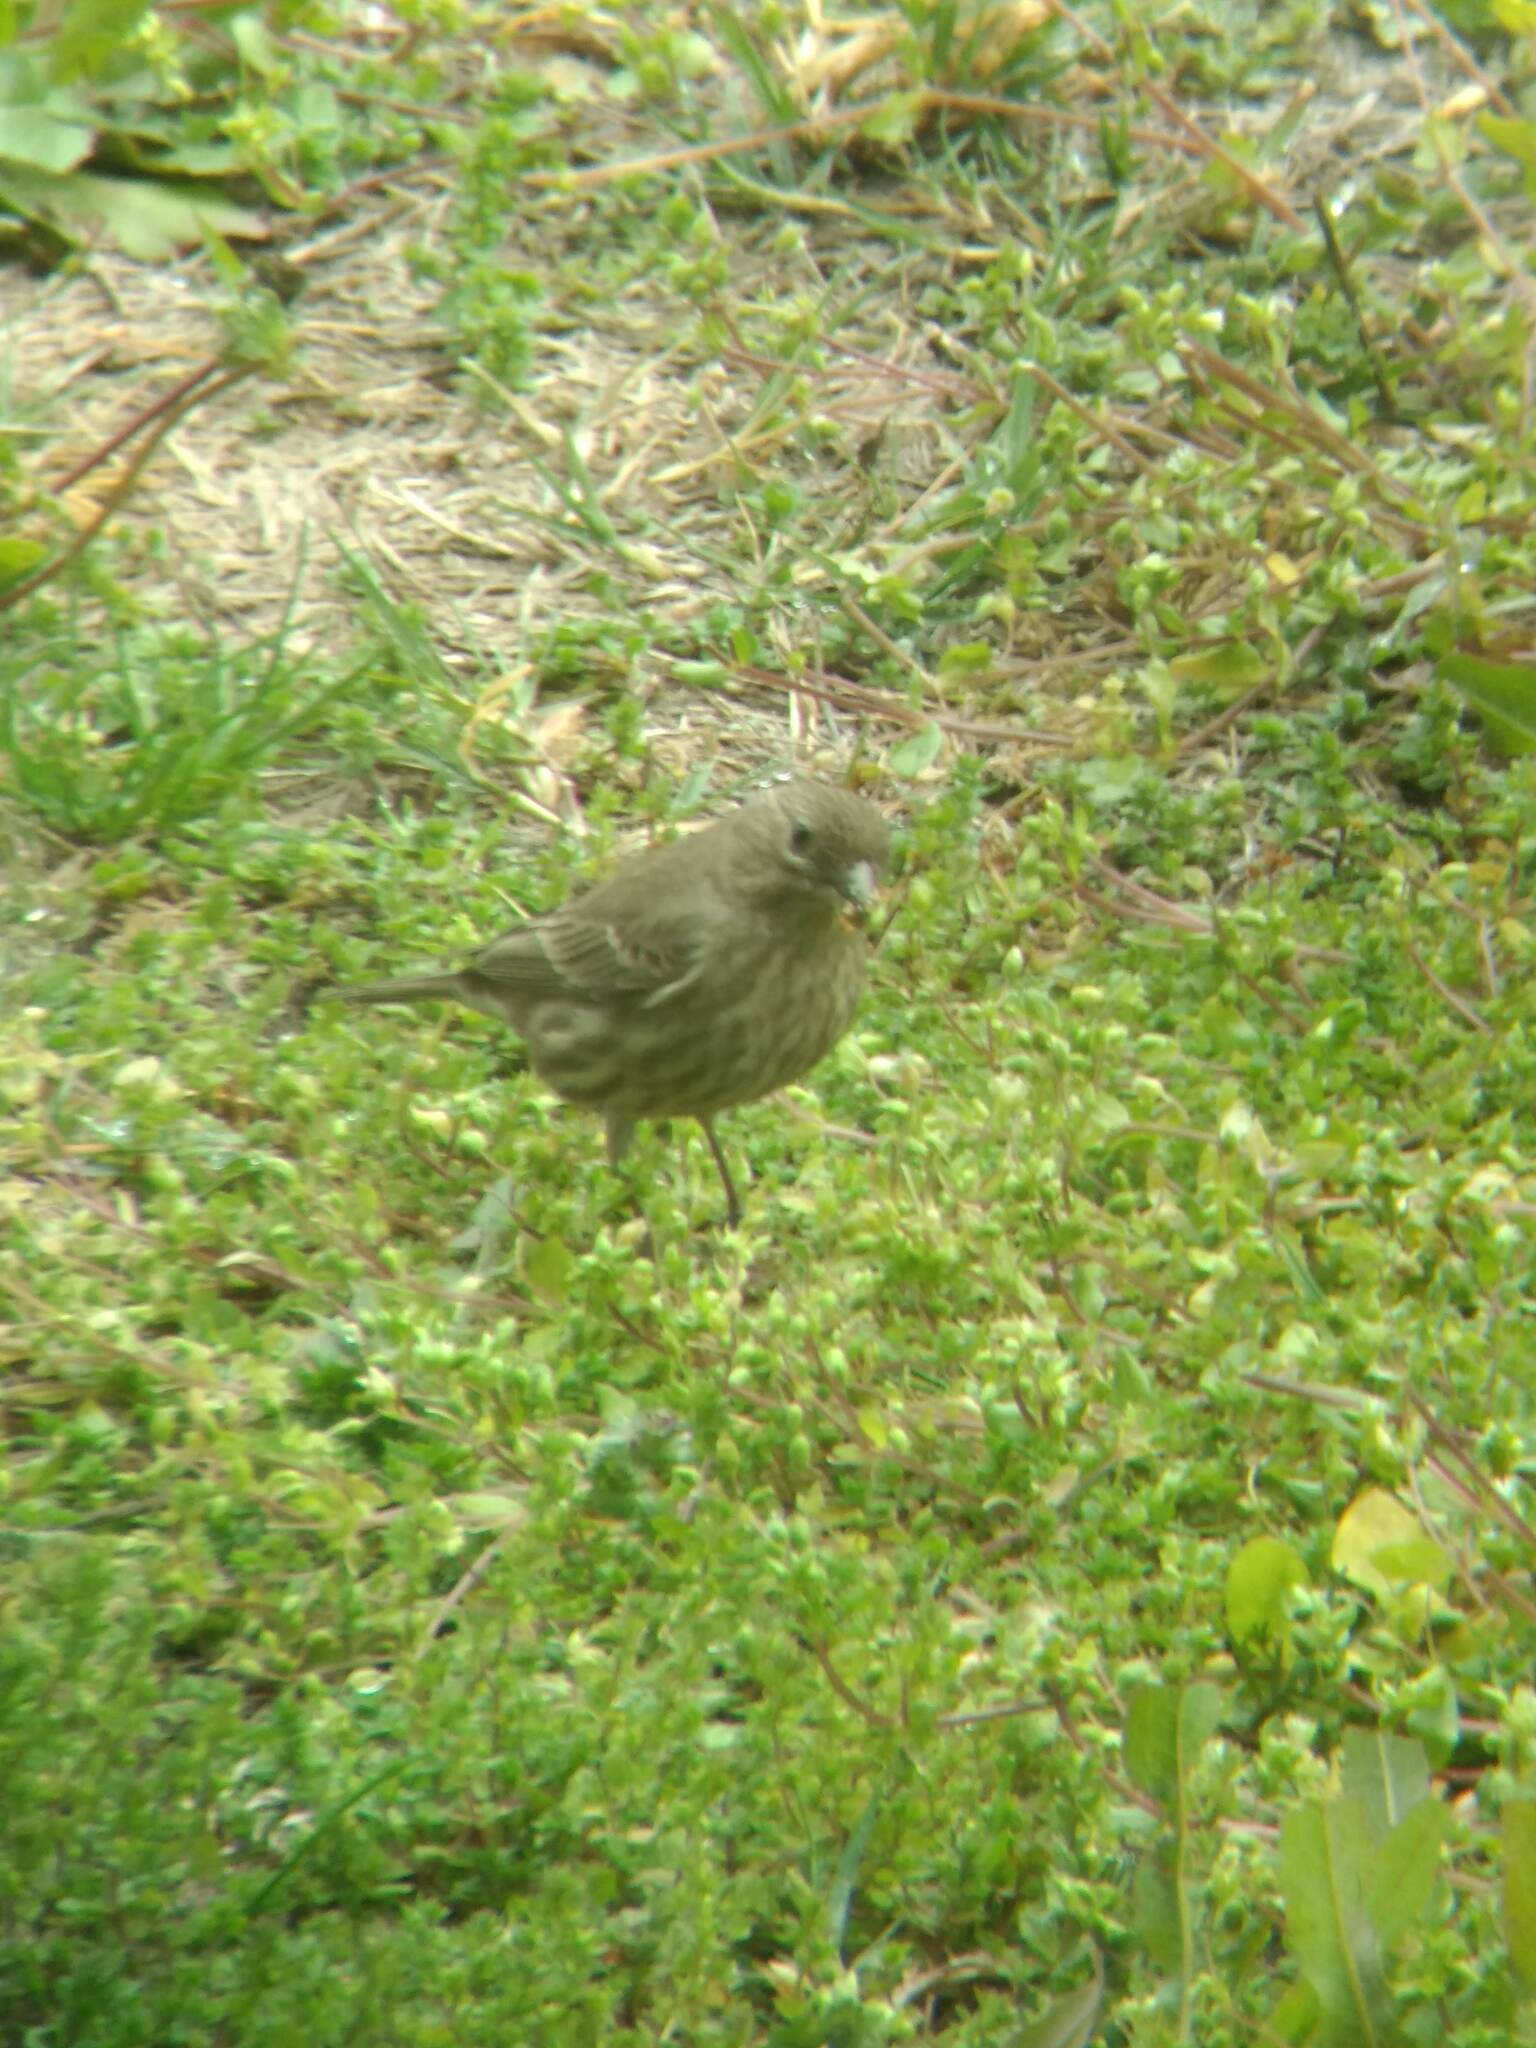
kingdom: Animalia
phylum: Chordata
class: Aves
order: Passeriformes
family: Fringillidae
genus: Haemorhous
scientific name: Haemorhous mexicanus
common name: House finch
